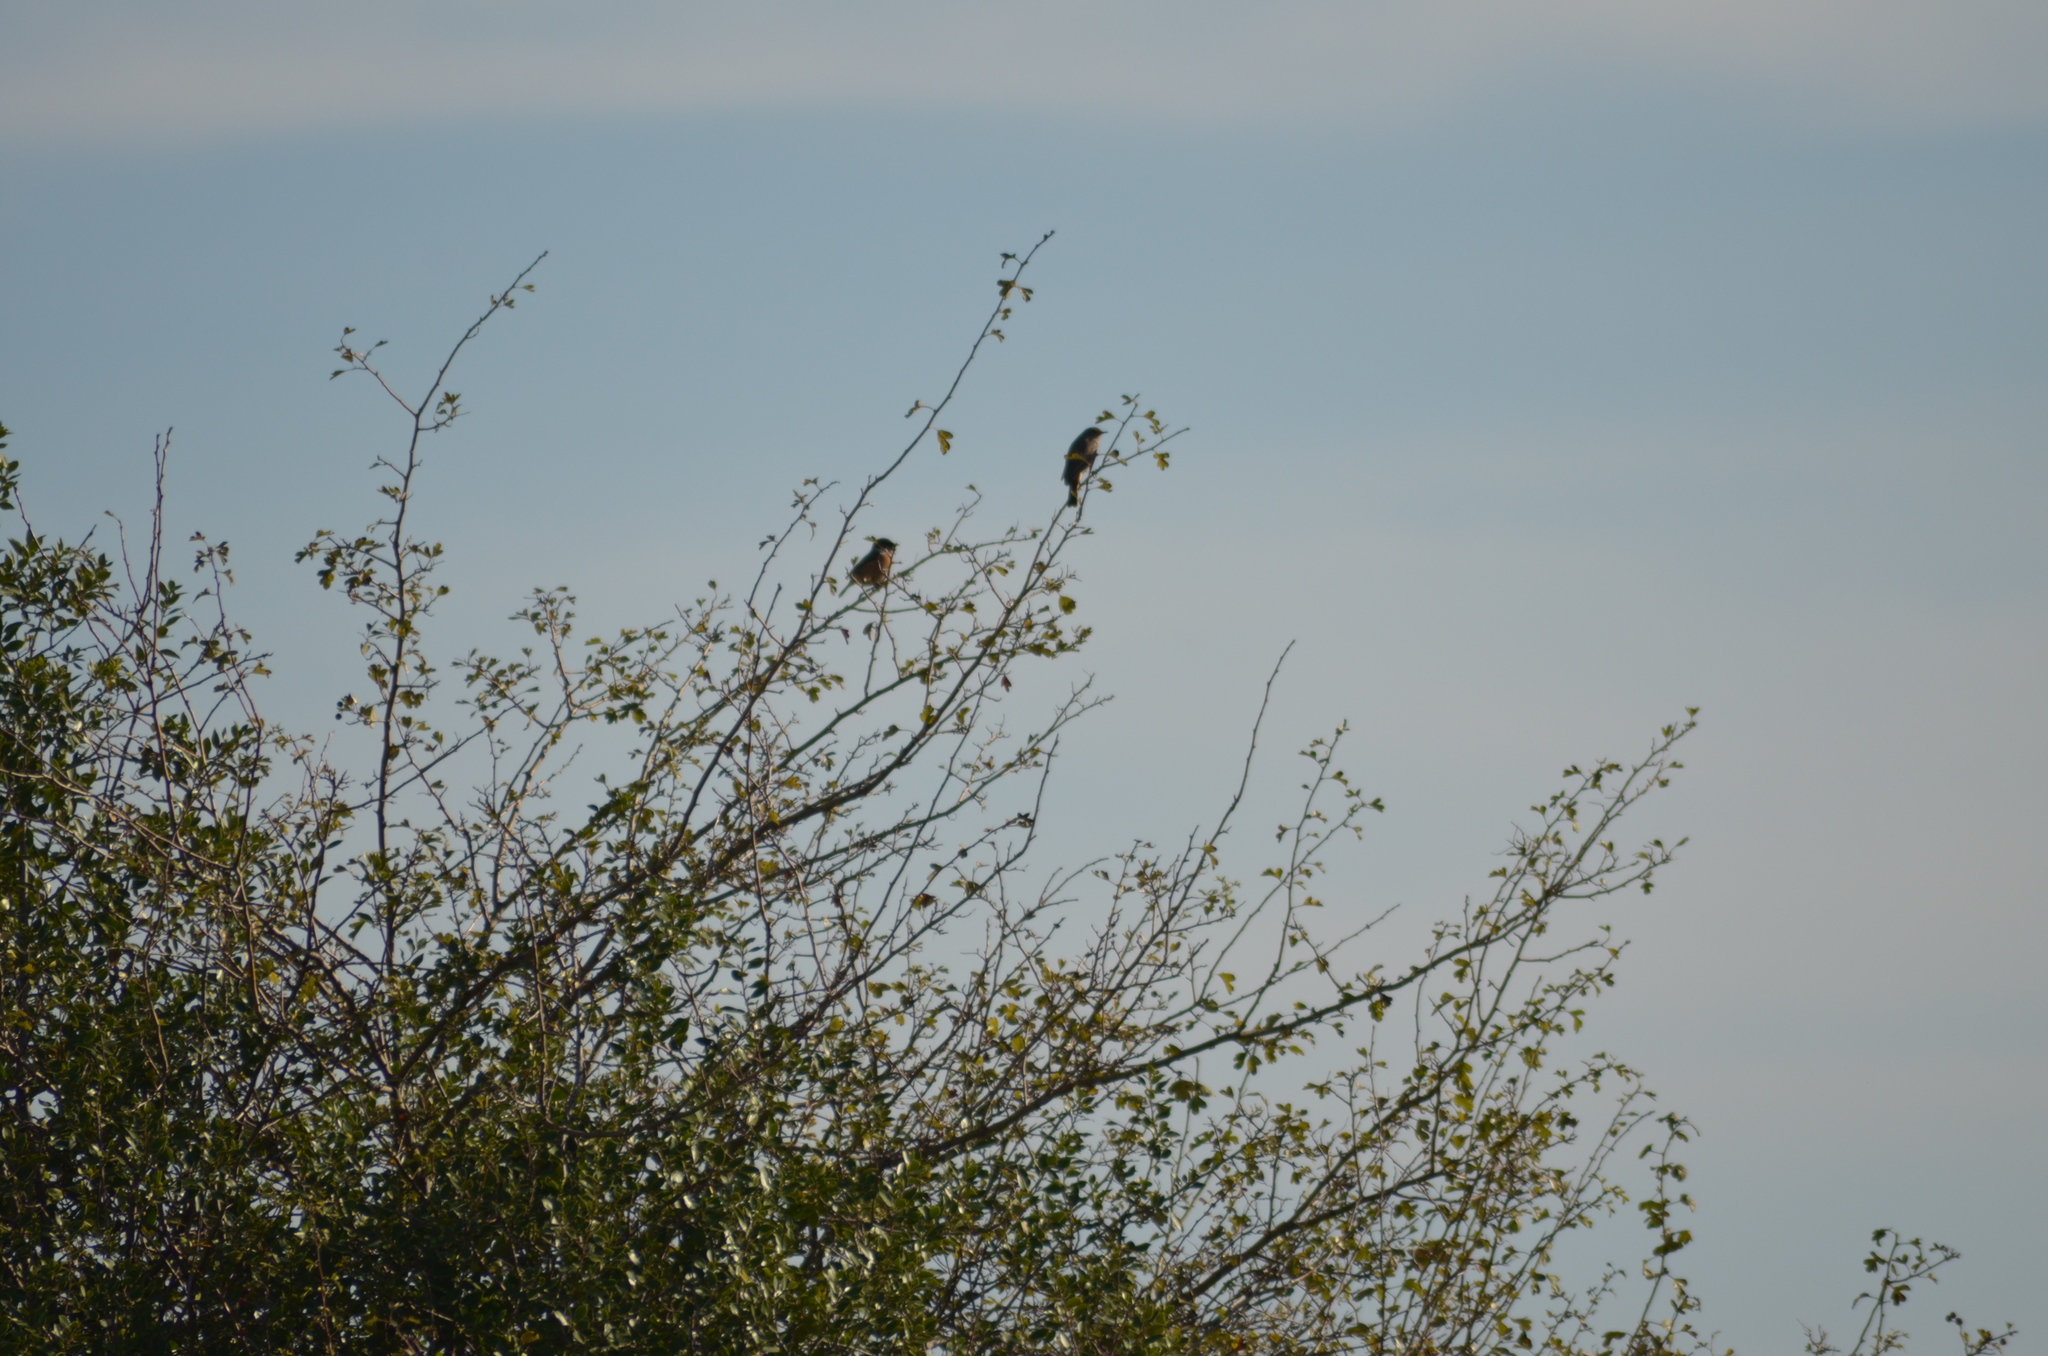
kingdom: Animalia
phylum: Chordata
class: Aves
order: Passeriformes
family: Muscicapidae
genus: Saxicola
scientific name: Saxicola rubicola
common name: European stonechat
